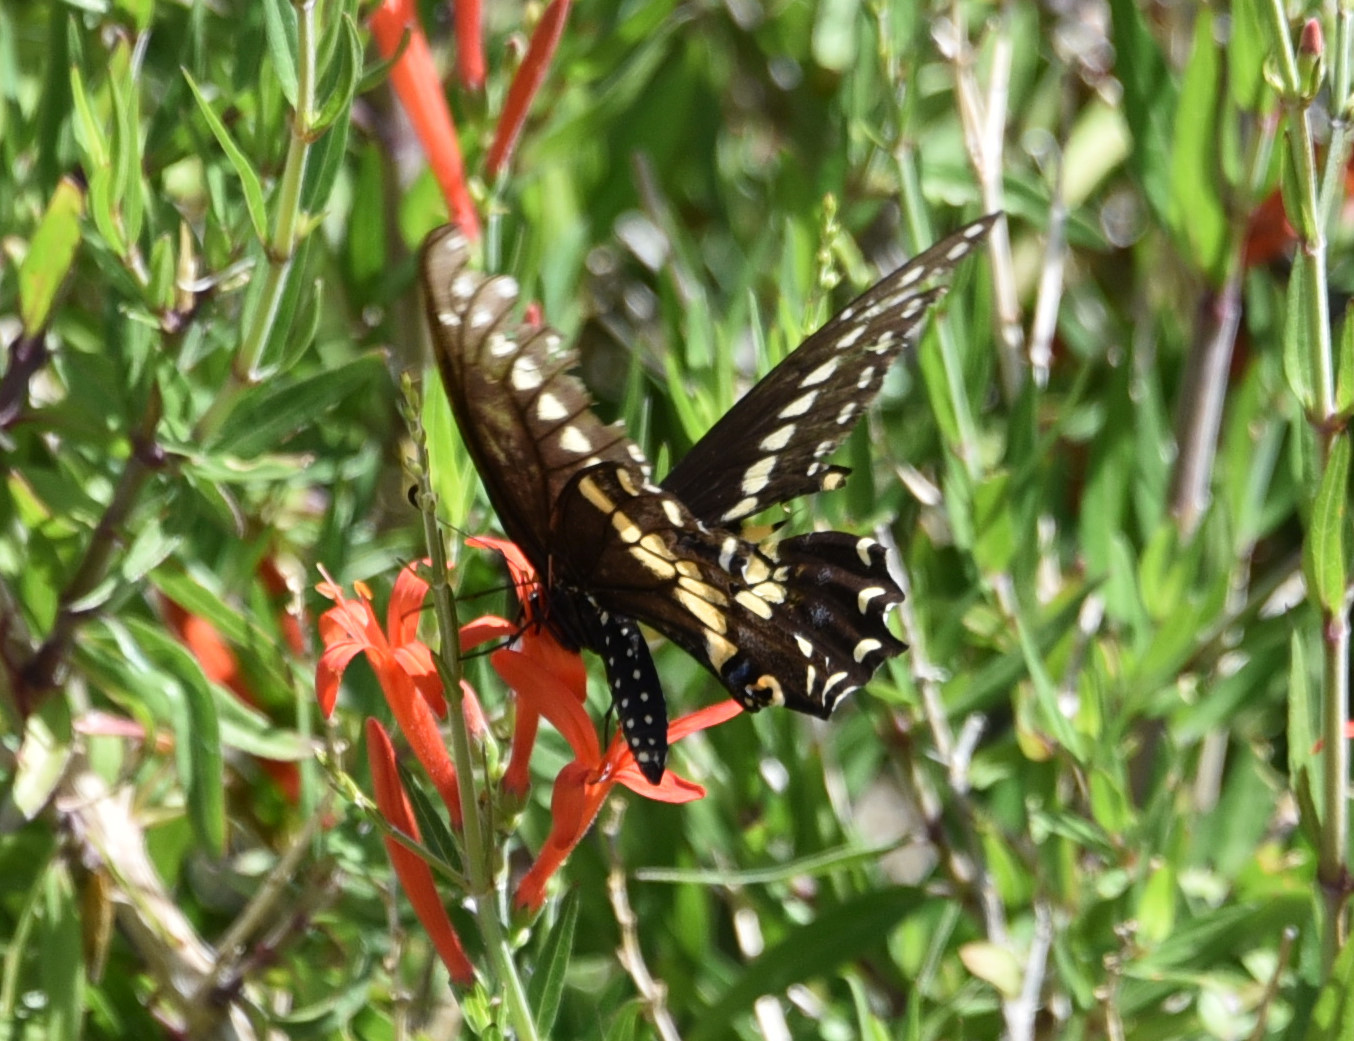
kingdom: Animalia
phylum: Arthropoda
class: Insecta
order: Lepidoptera
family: Papilionidae
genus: Papilio
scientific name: Papilio polyxenes
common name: Black swallowtail
